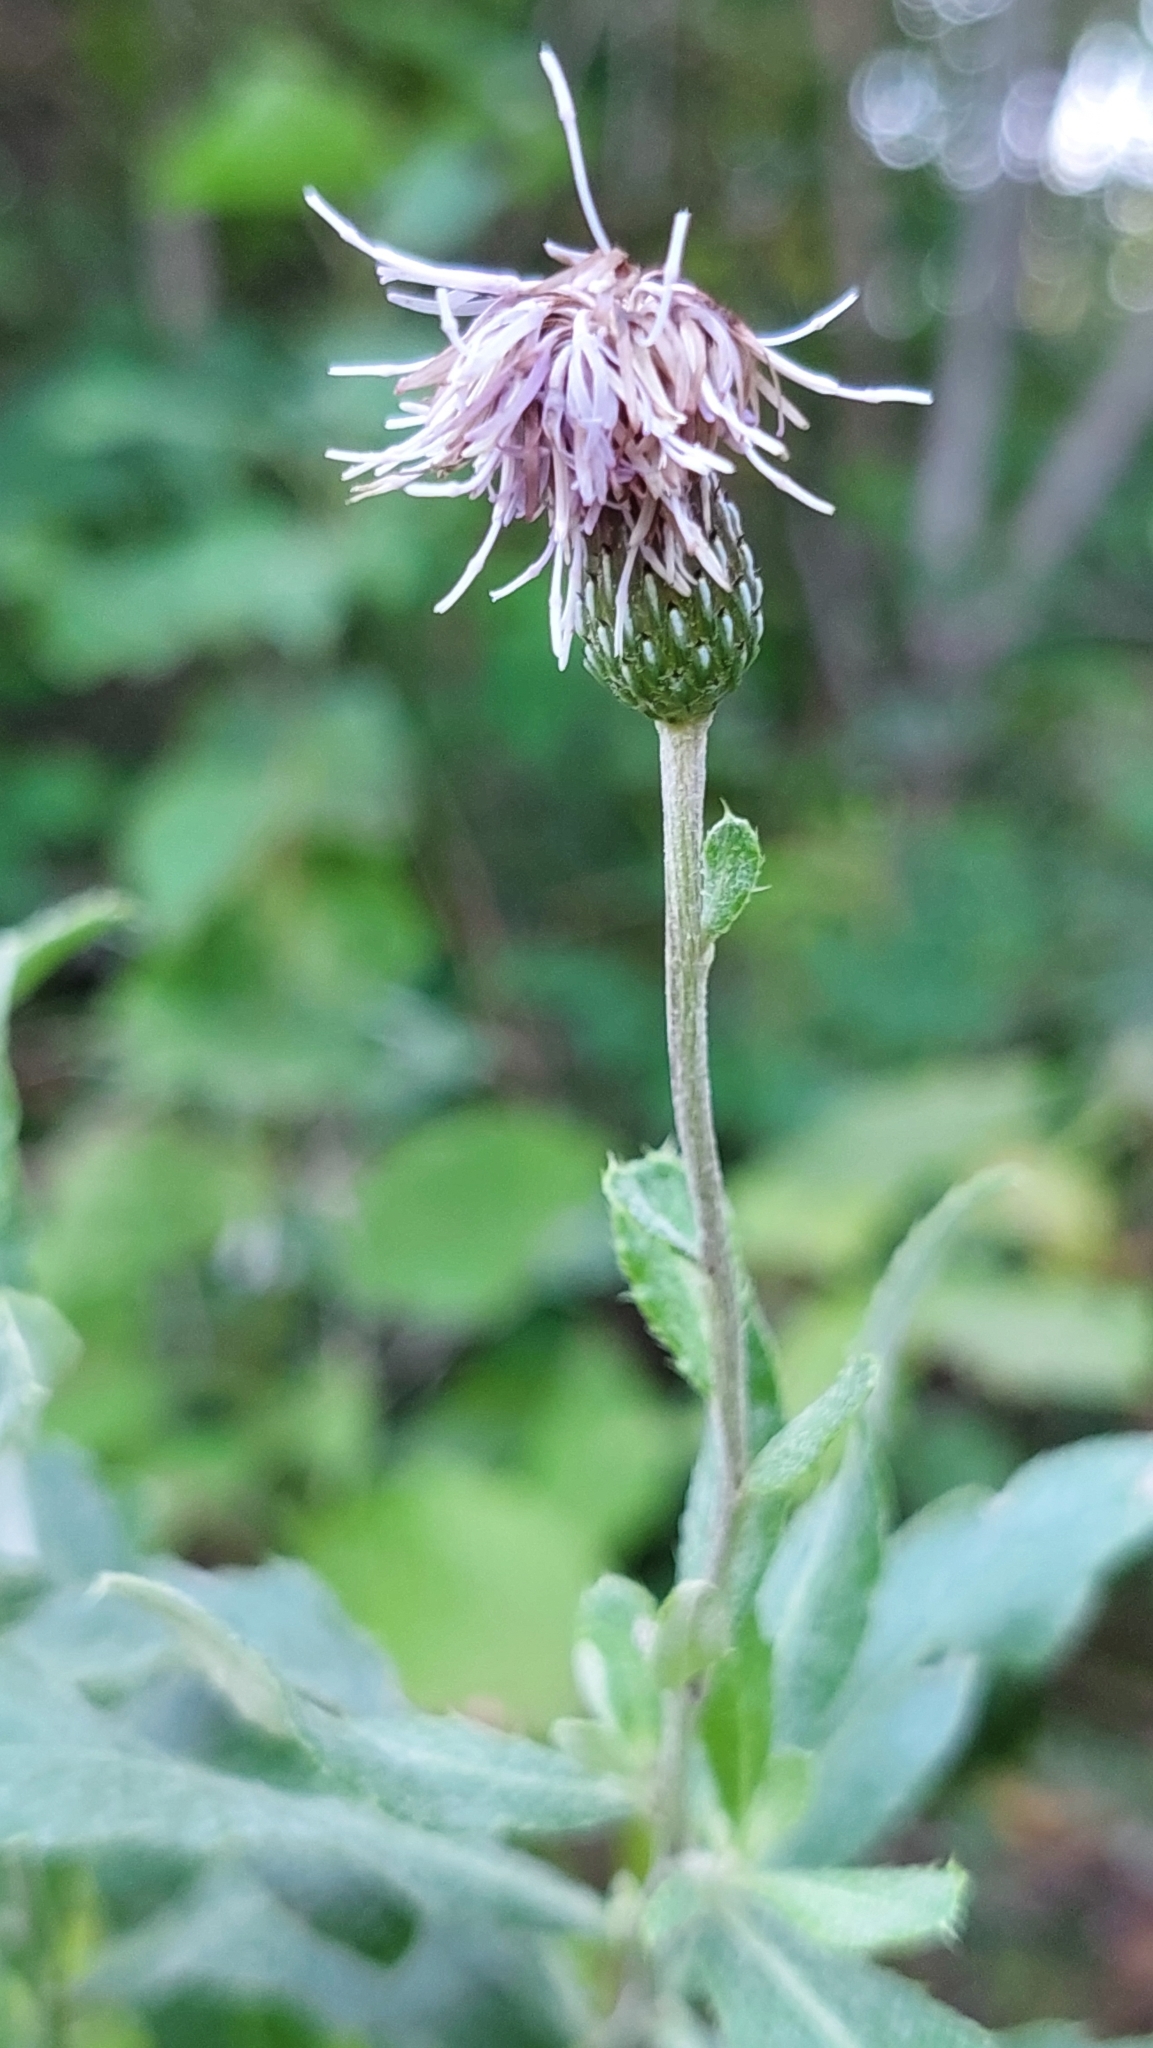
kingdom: Plantae
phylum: Tracheophyta
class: Magnoliopsida
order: Asterales
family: Asteraceae
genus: Cirsium
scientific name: Cirsium arvense
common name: Creeping thistle
